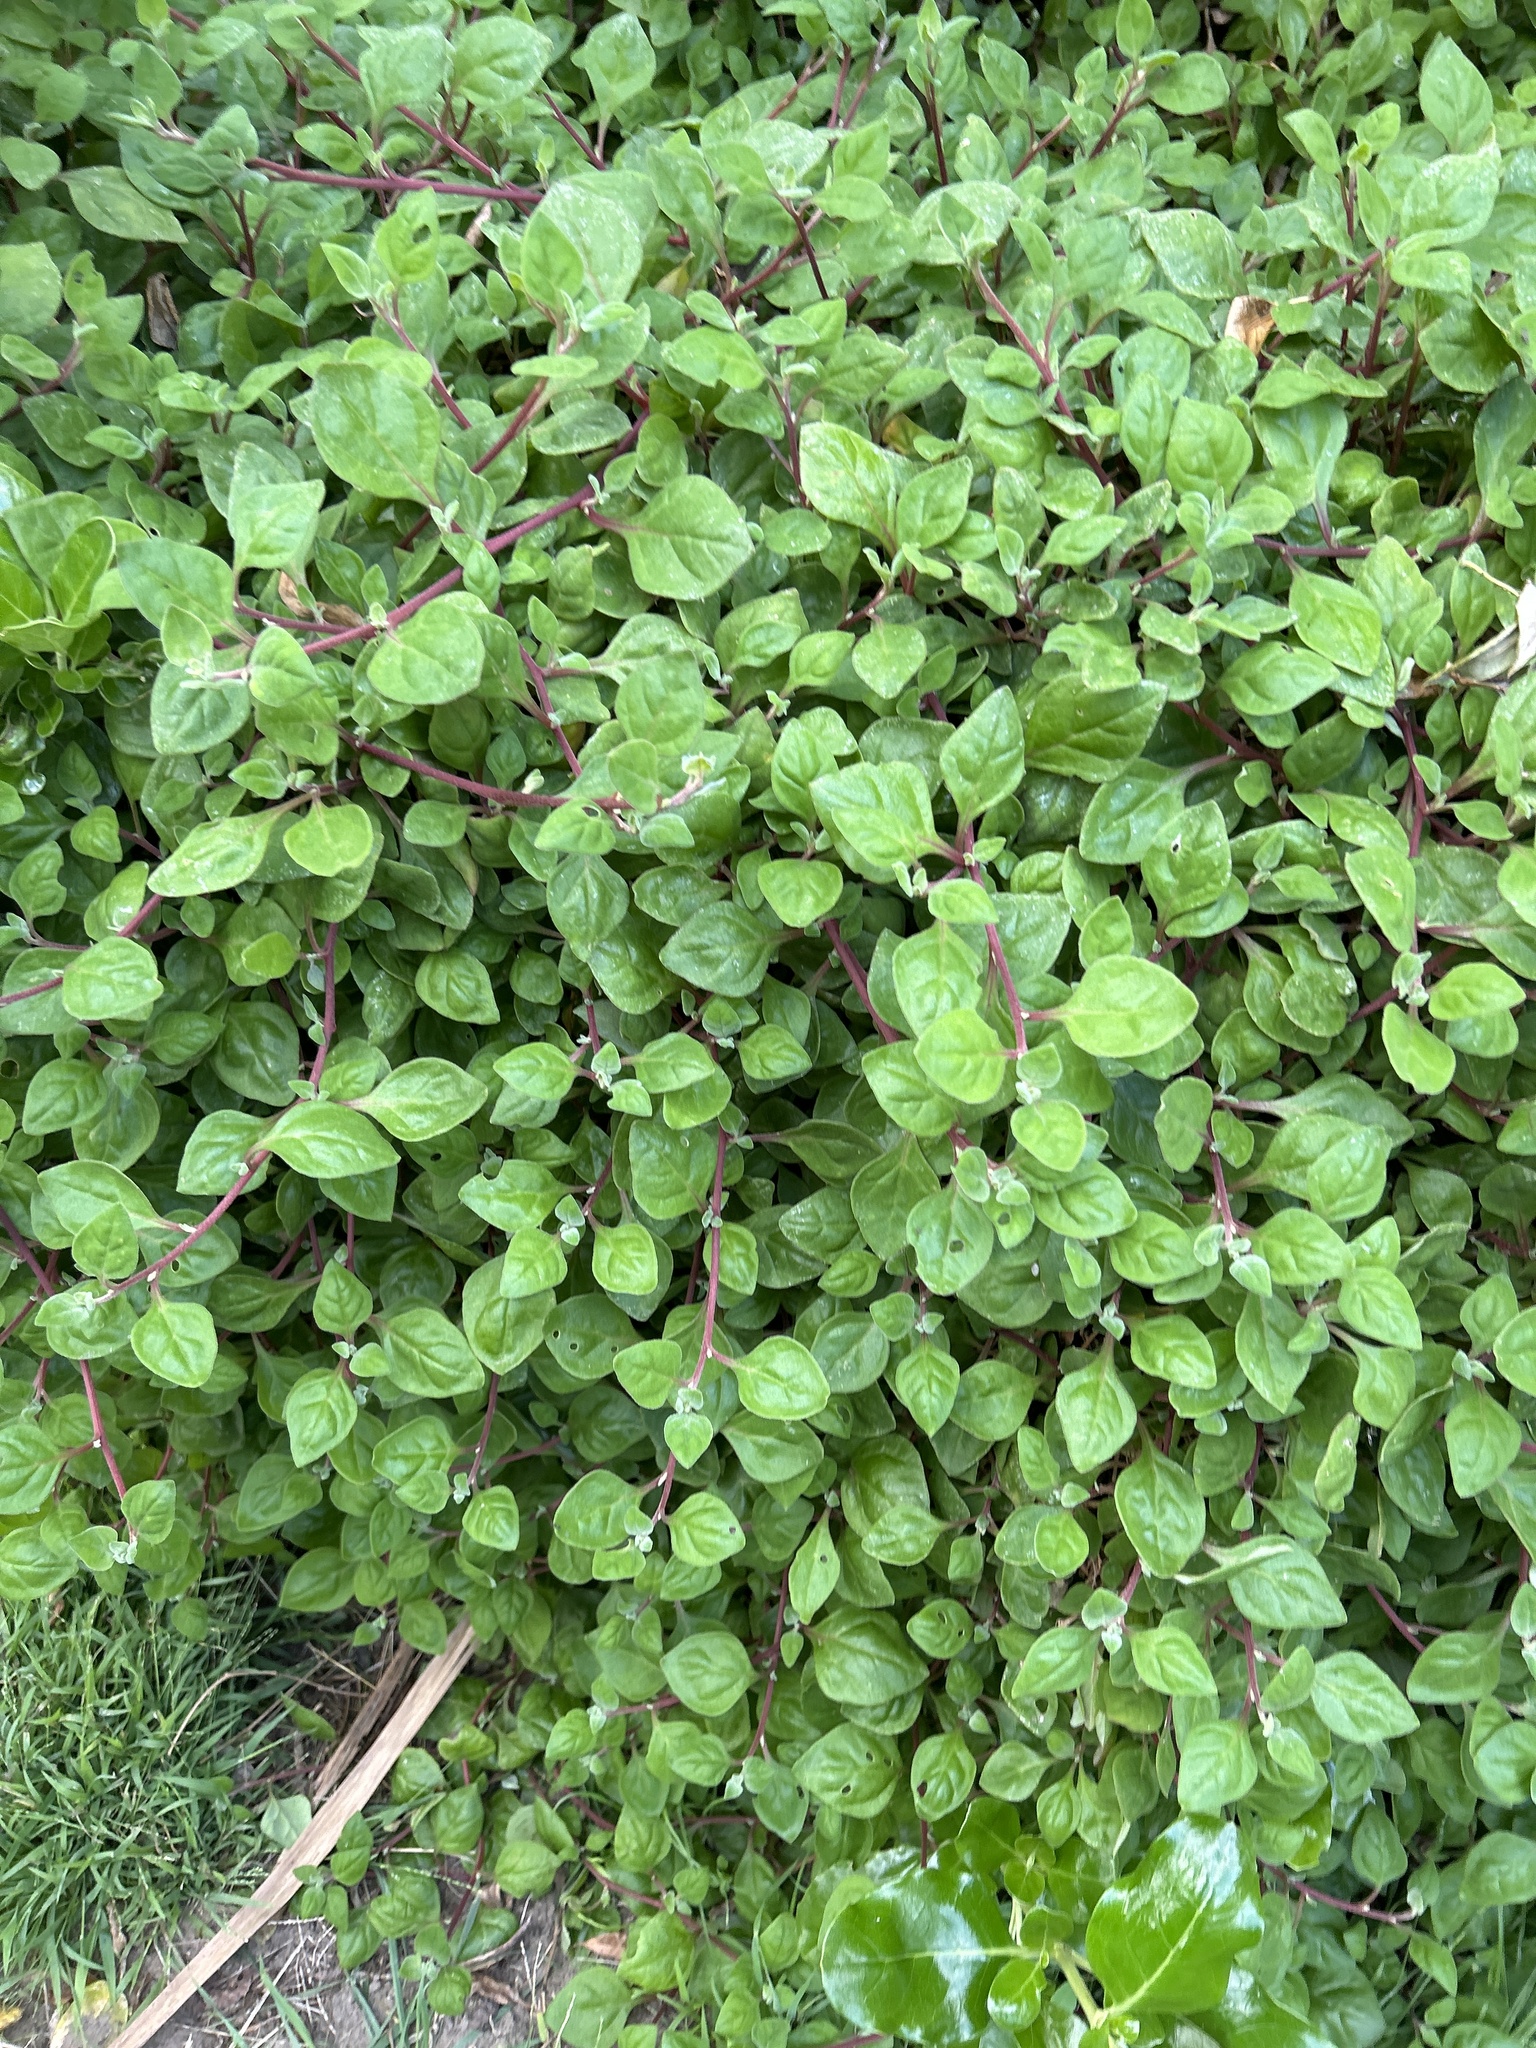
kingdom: Plantae
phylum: Tracheophyta
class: Magnoliopsida
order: Caryophyllales
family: Aizoaceae
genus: Tetragonia
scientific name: Tetragonia implexicoma
